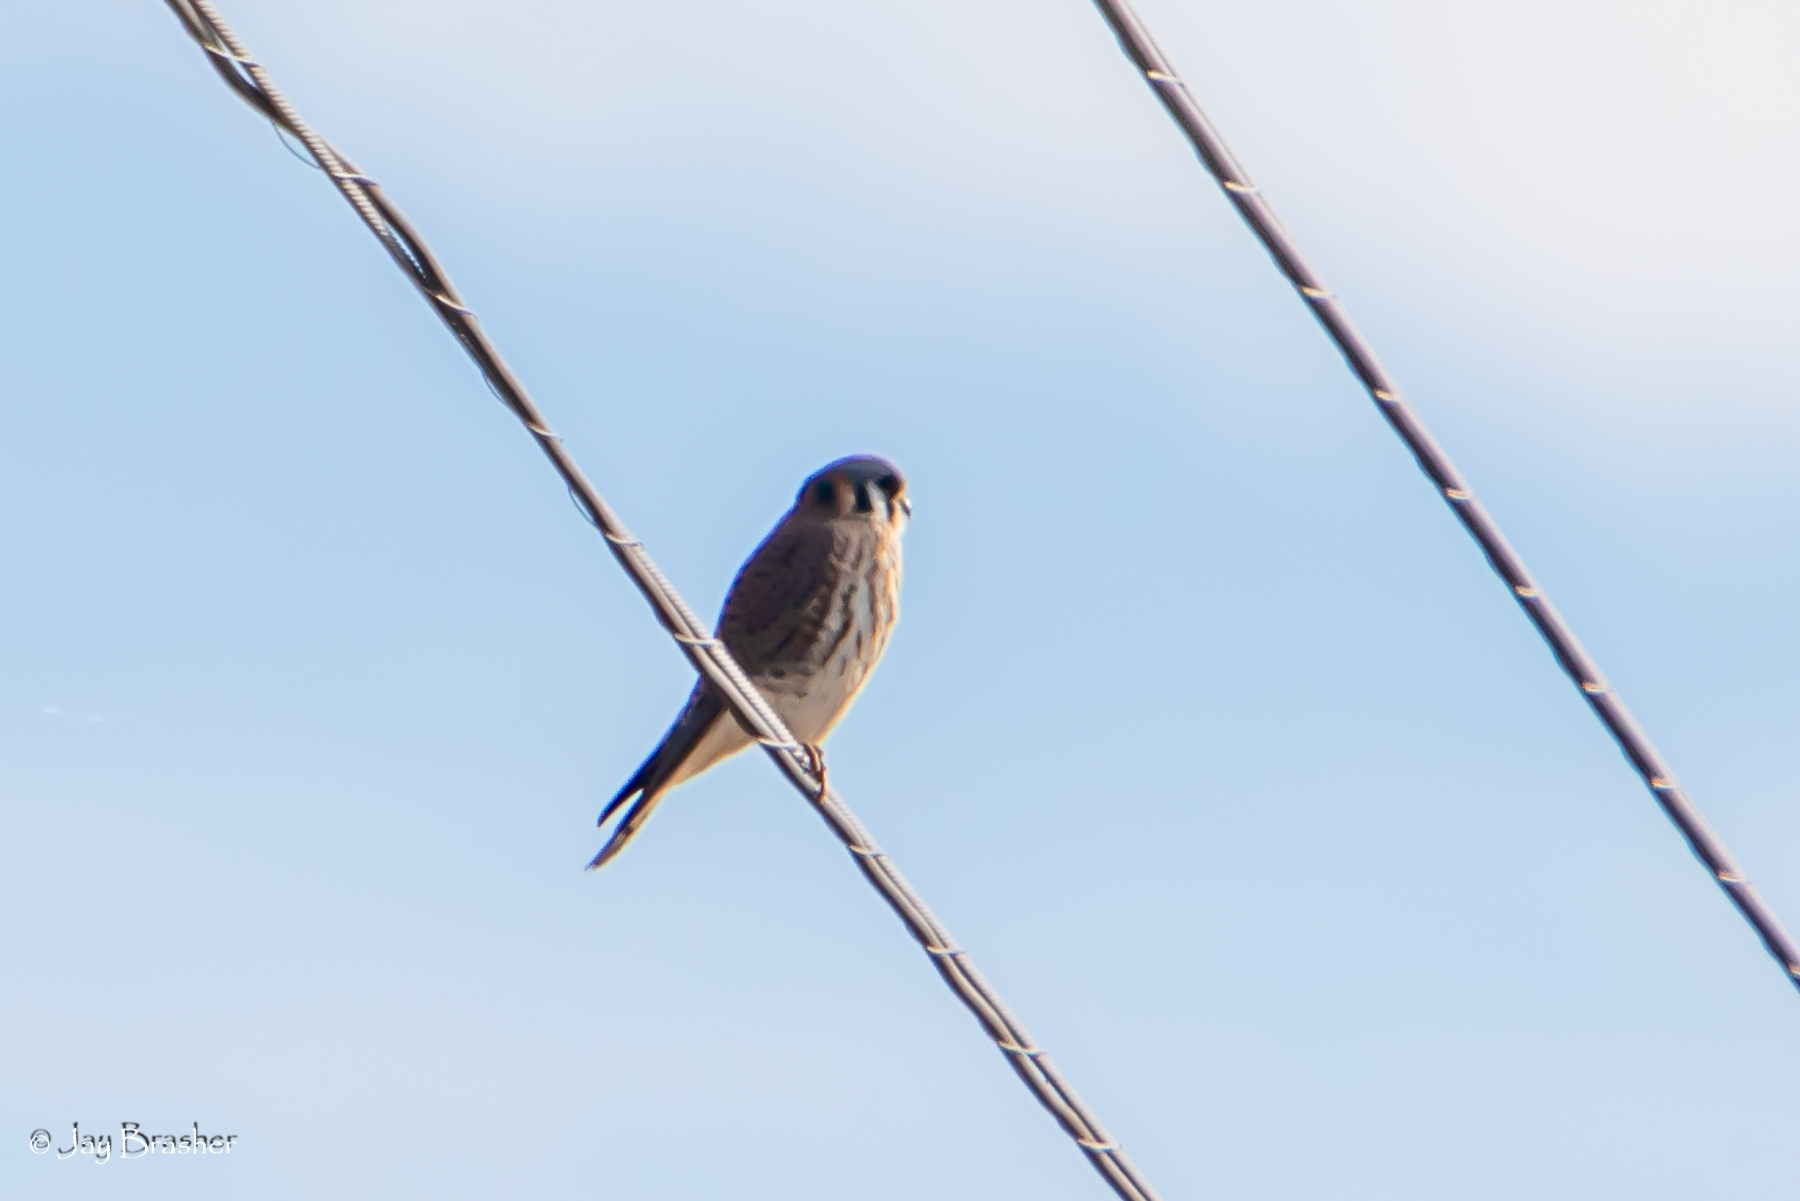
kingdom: Animalia
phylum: Chordata
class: Aves
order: Falconiformes
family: Falconidae
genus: Falco
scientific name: Falco sparverius
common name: American kestrel
